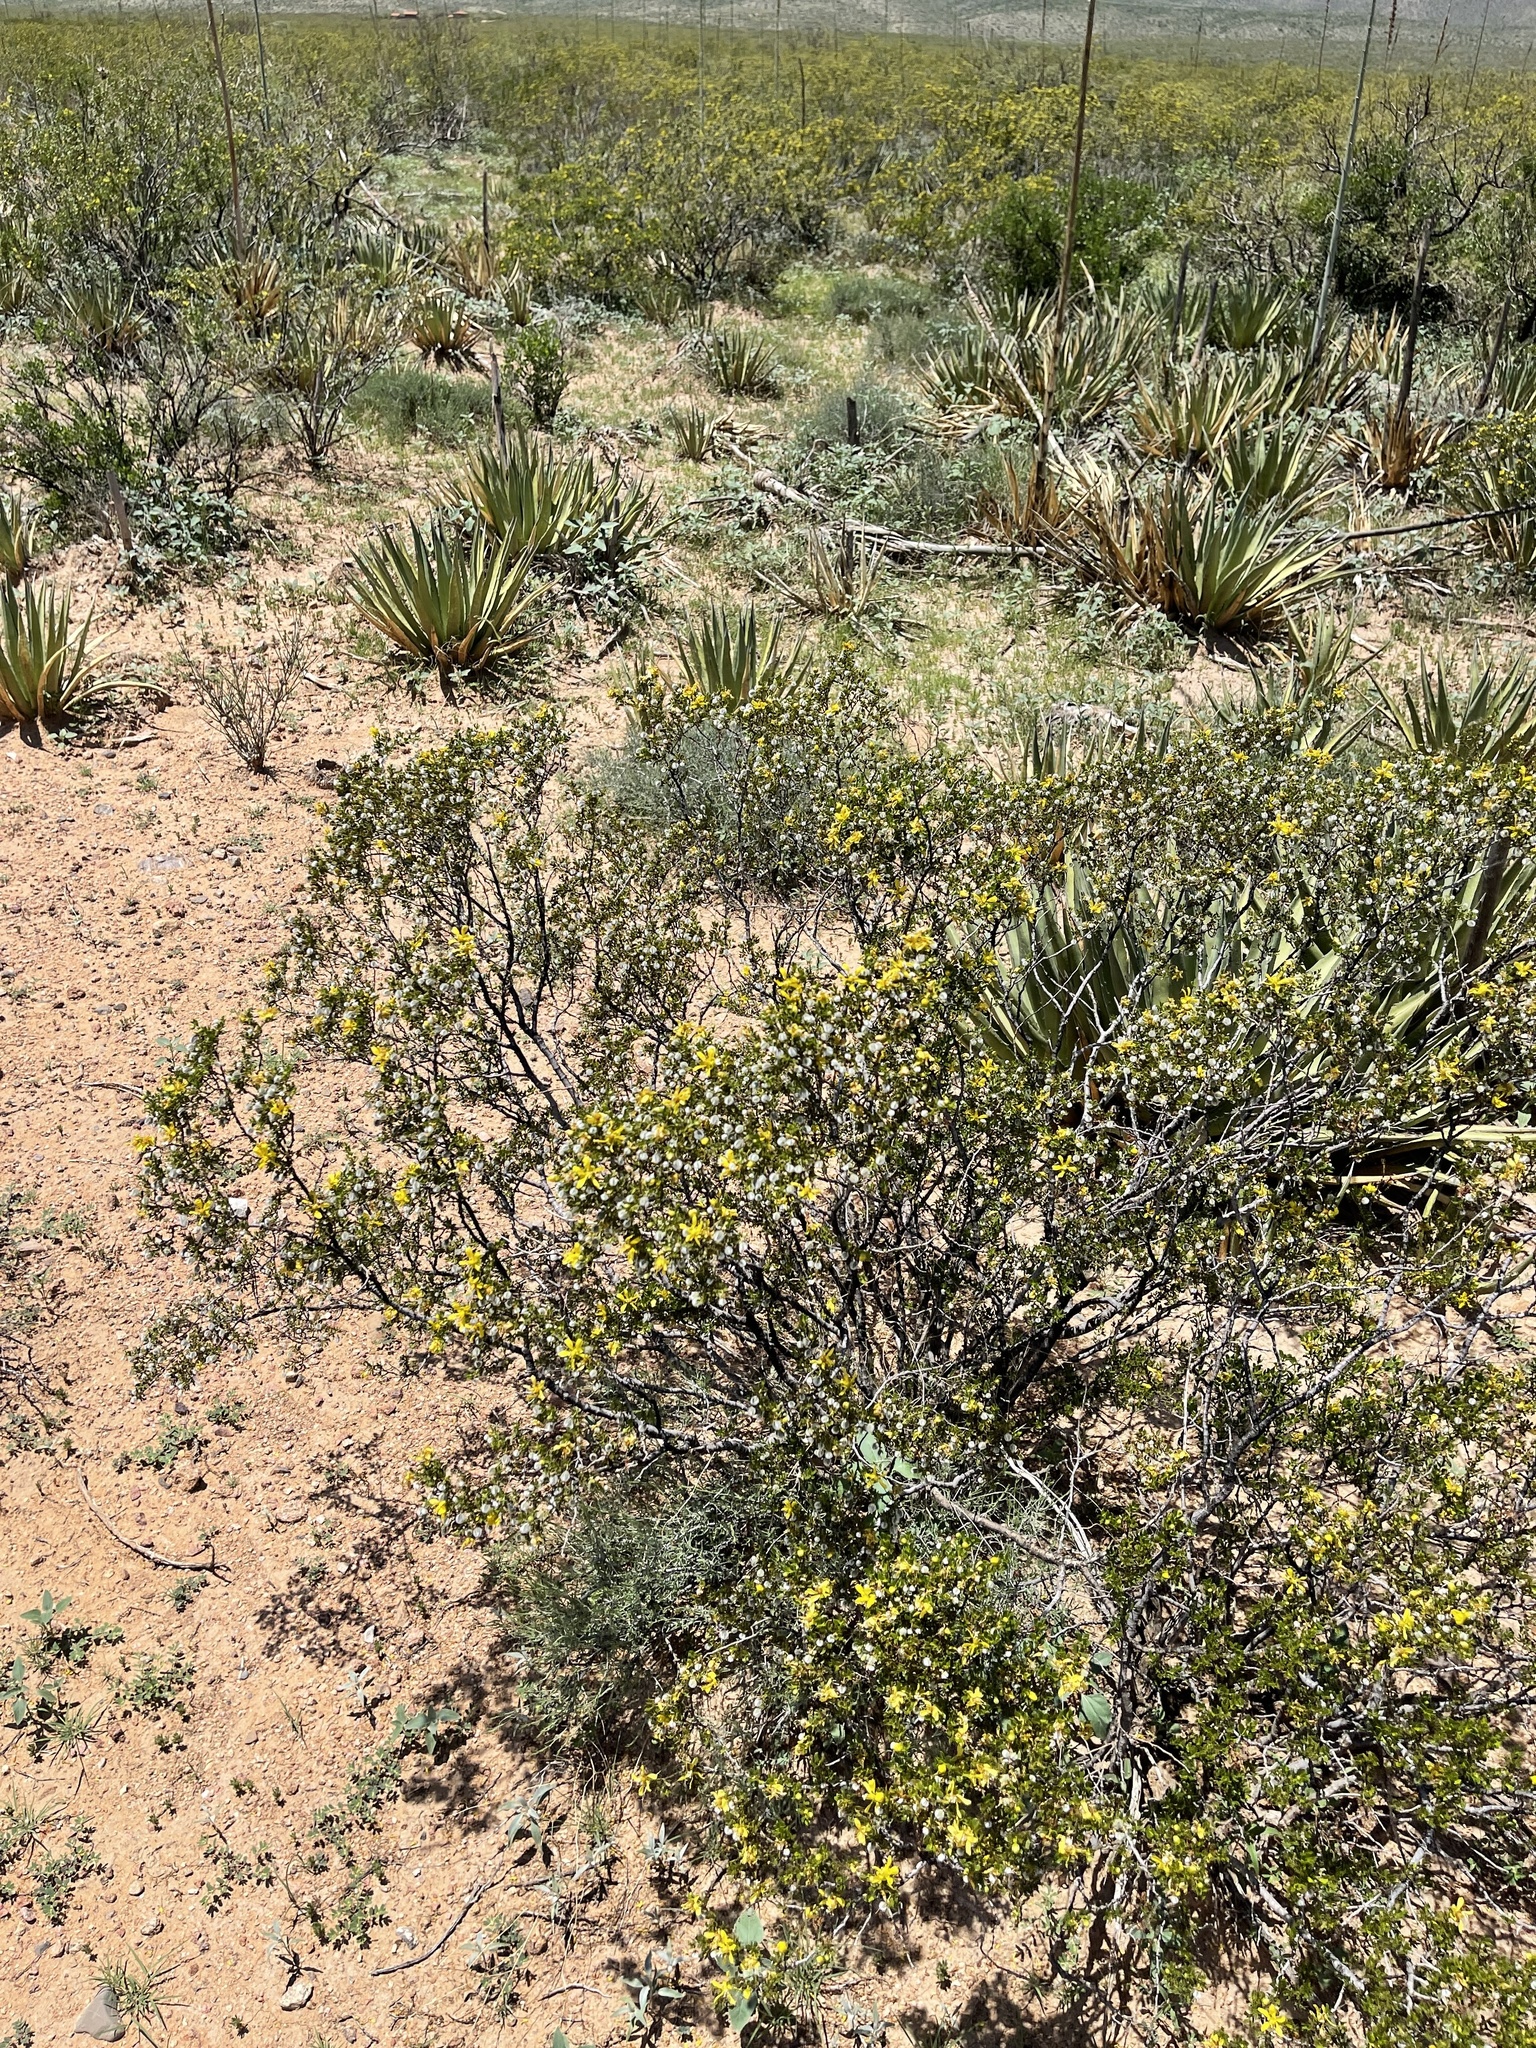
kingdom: Plantae
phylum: Tracheophyta
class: Magnoliopsida
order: Zygophyllales
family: Zygophyllaceae
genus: Larrea
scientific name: Larrea tridentata
